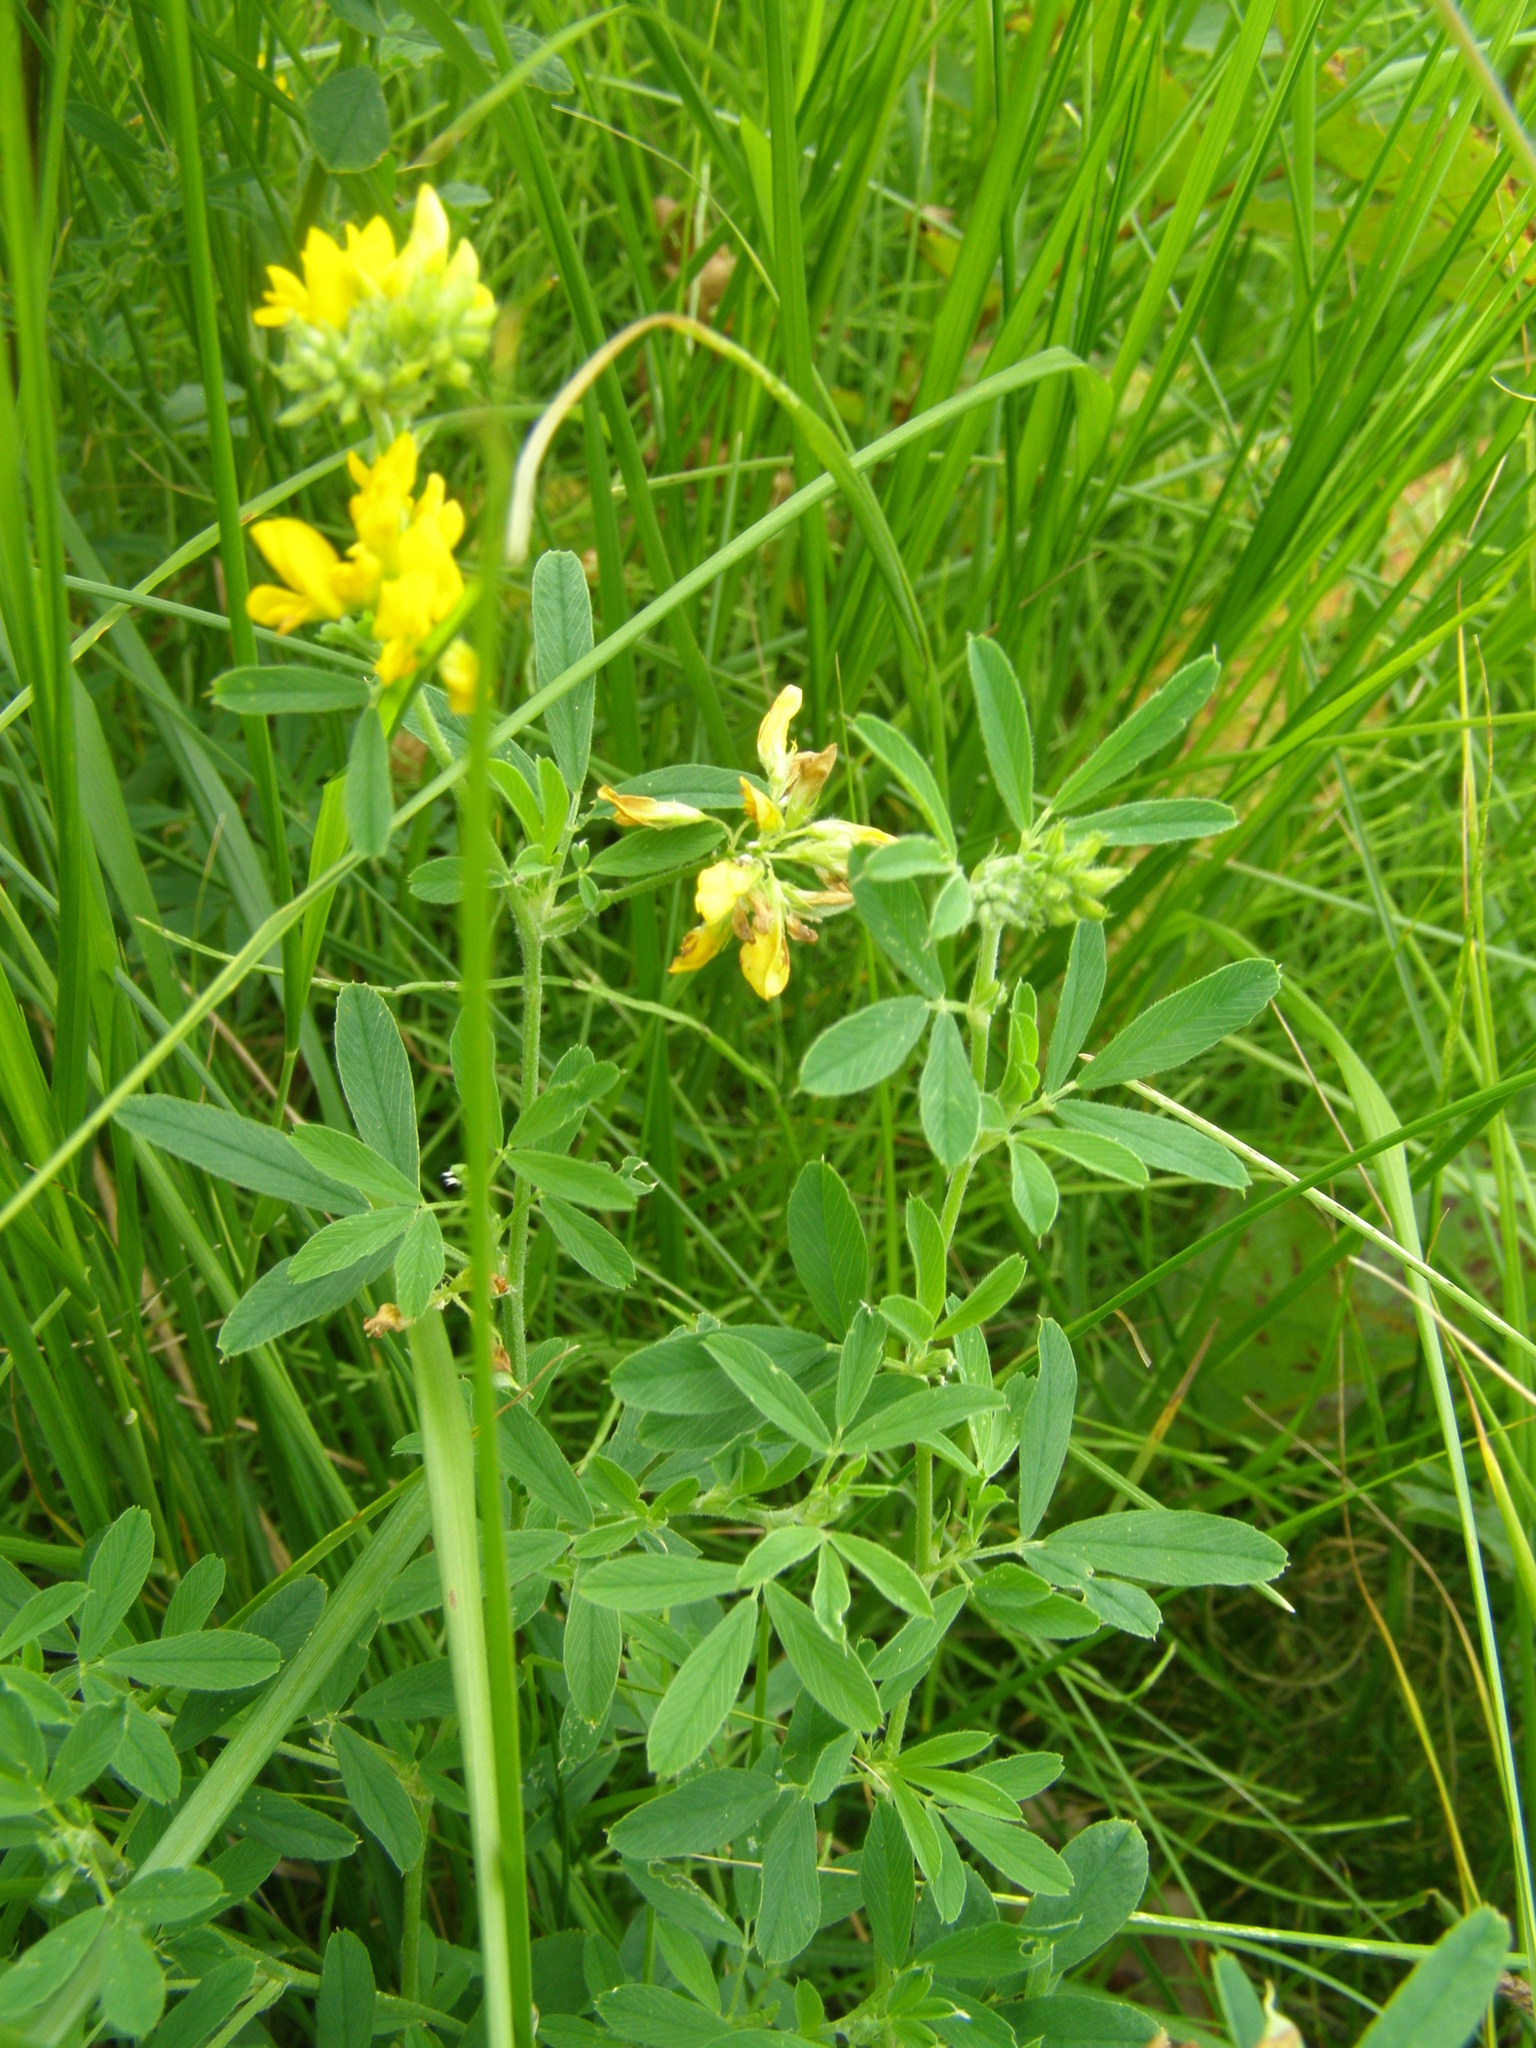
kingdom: Plantae
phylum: Tracheophyta
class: Magnoliopsida
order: Fabales
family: Fabaceae
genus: Medicago
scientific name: Medicago falcata
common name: Sickle medick
